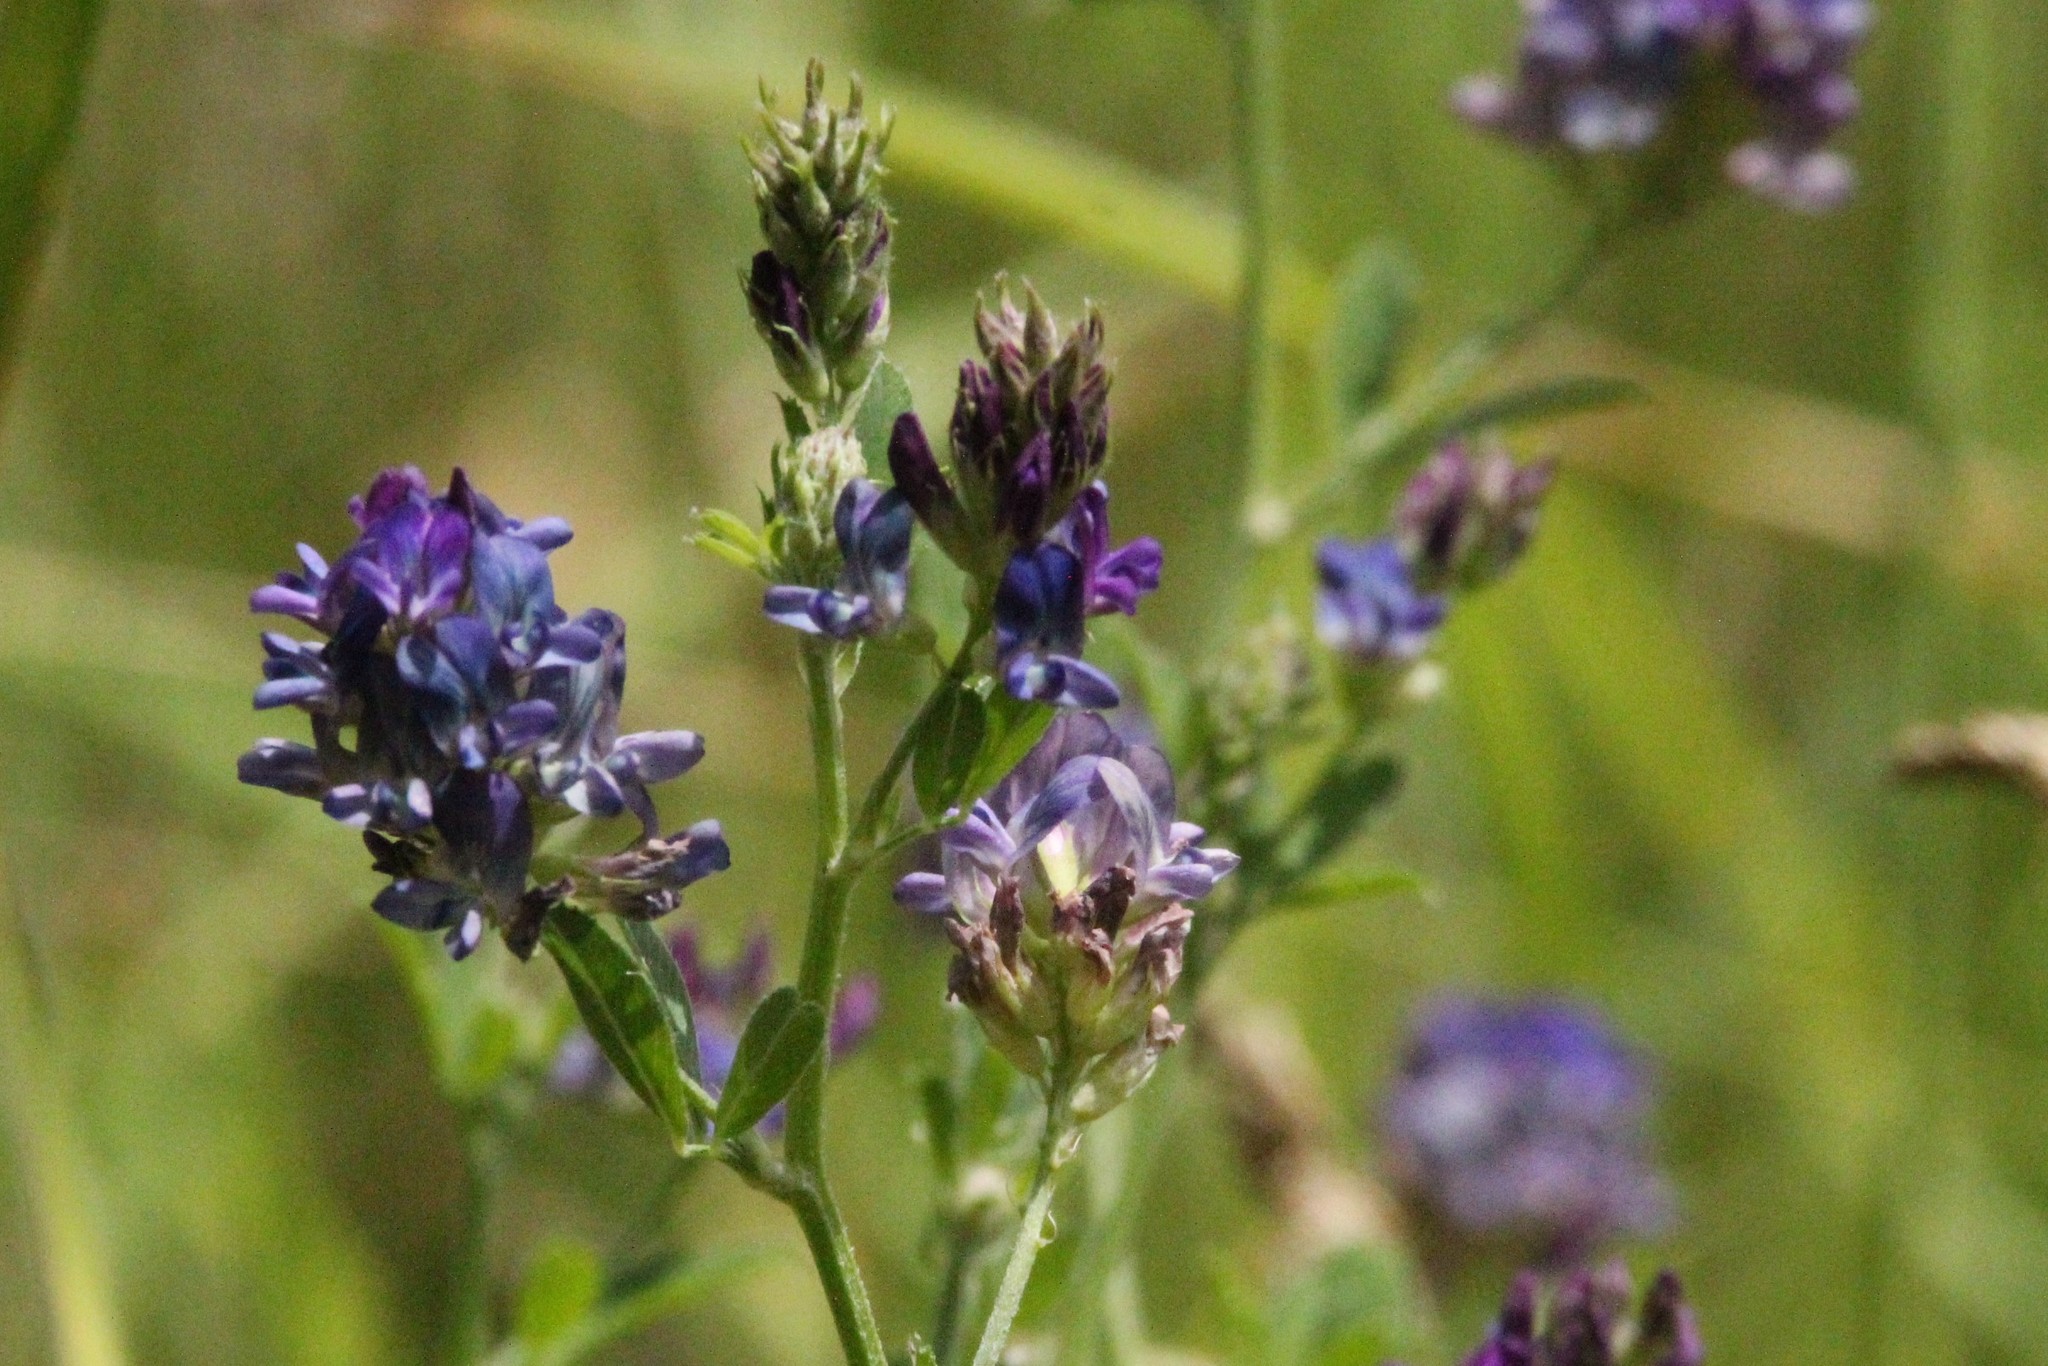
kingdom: Plantae
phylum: Tracheophyta
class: Magnoliopsida
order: Fabales
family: Fabaceae
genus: Medicago
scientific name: Medicago sativa
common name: Alfalfa
